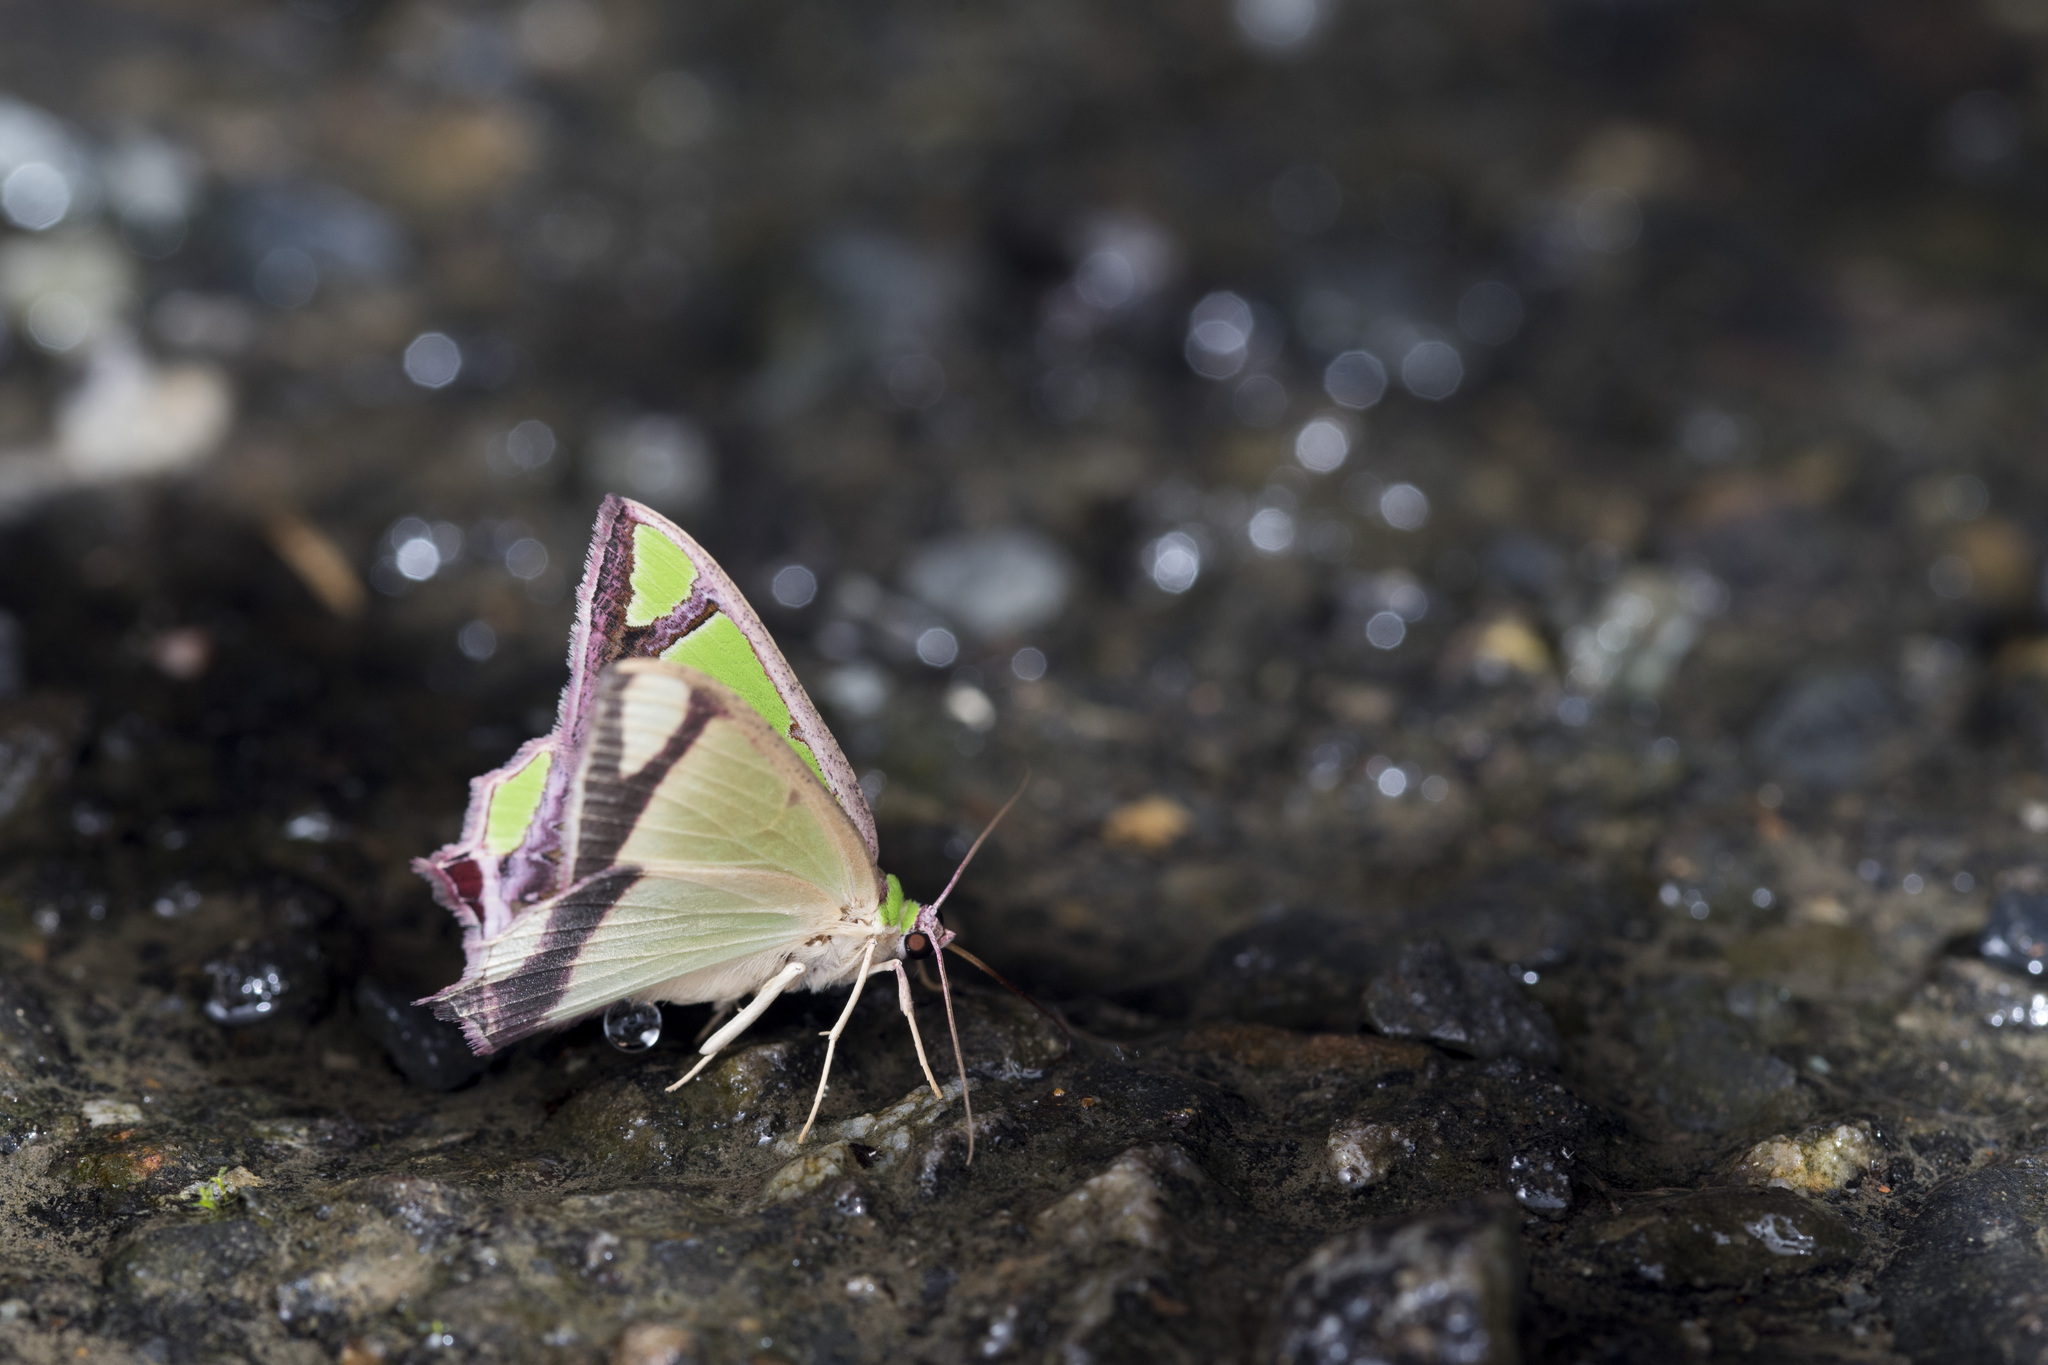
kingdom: Animalia
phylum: Arthropoda
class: Insecta
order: Lepidoptera
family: Geometridae
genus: Agathia
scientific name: Agathia laetata
